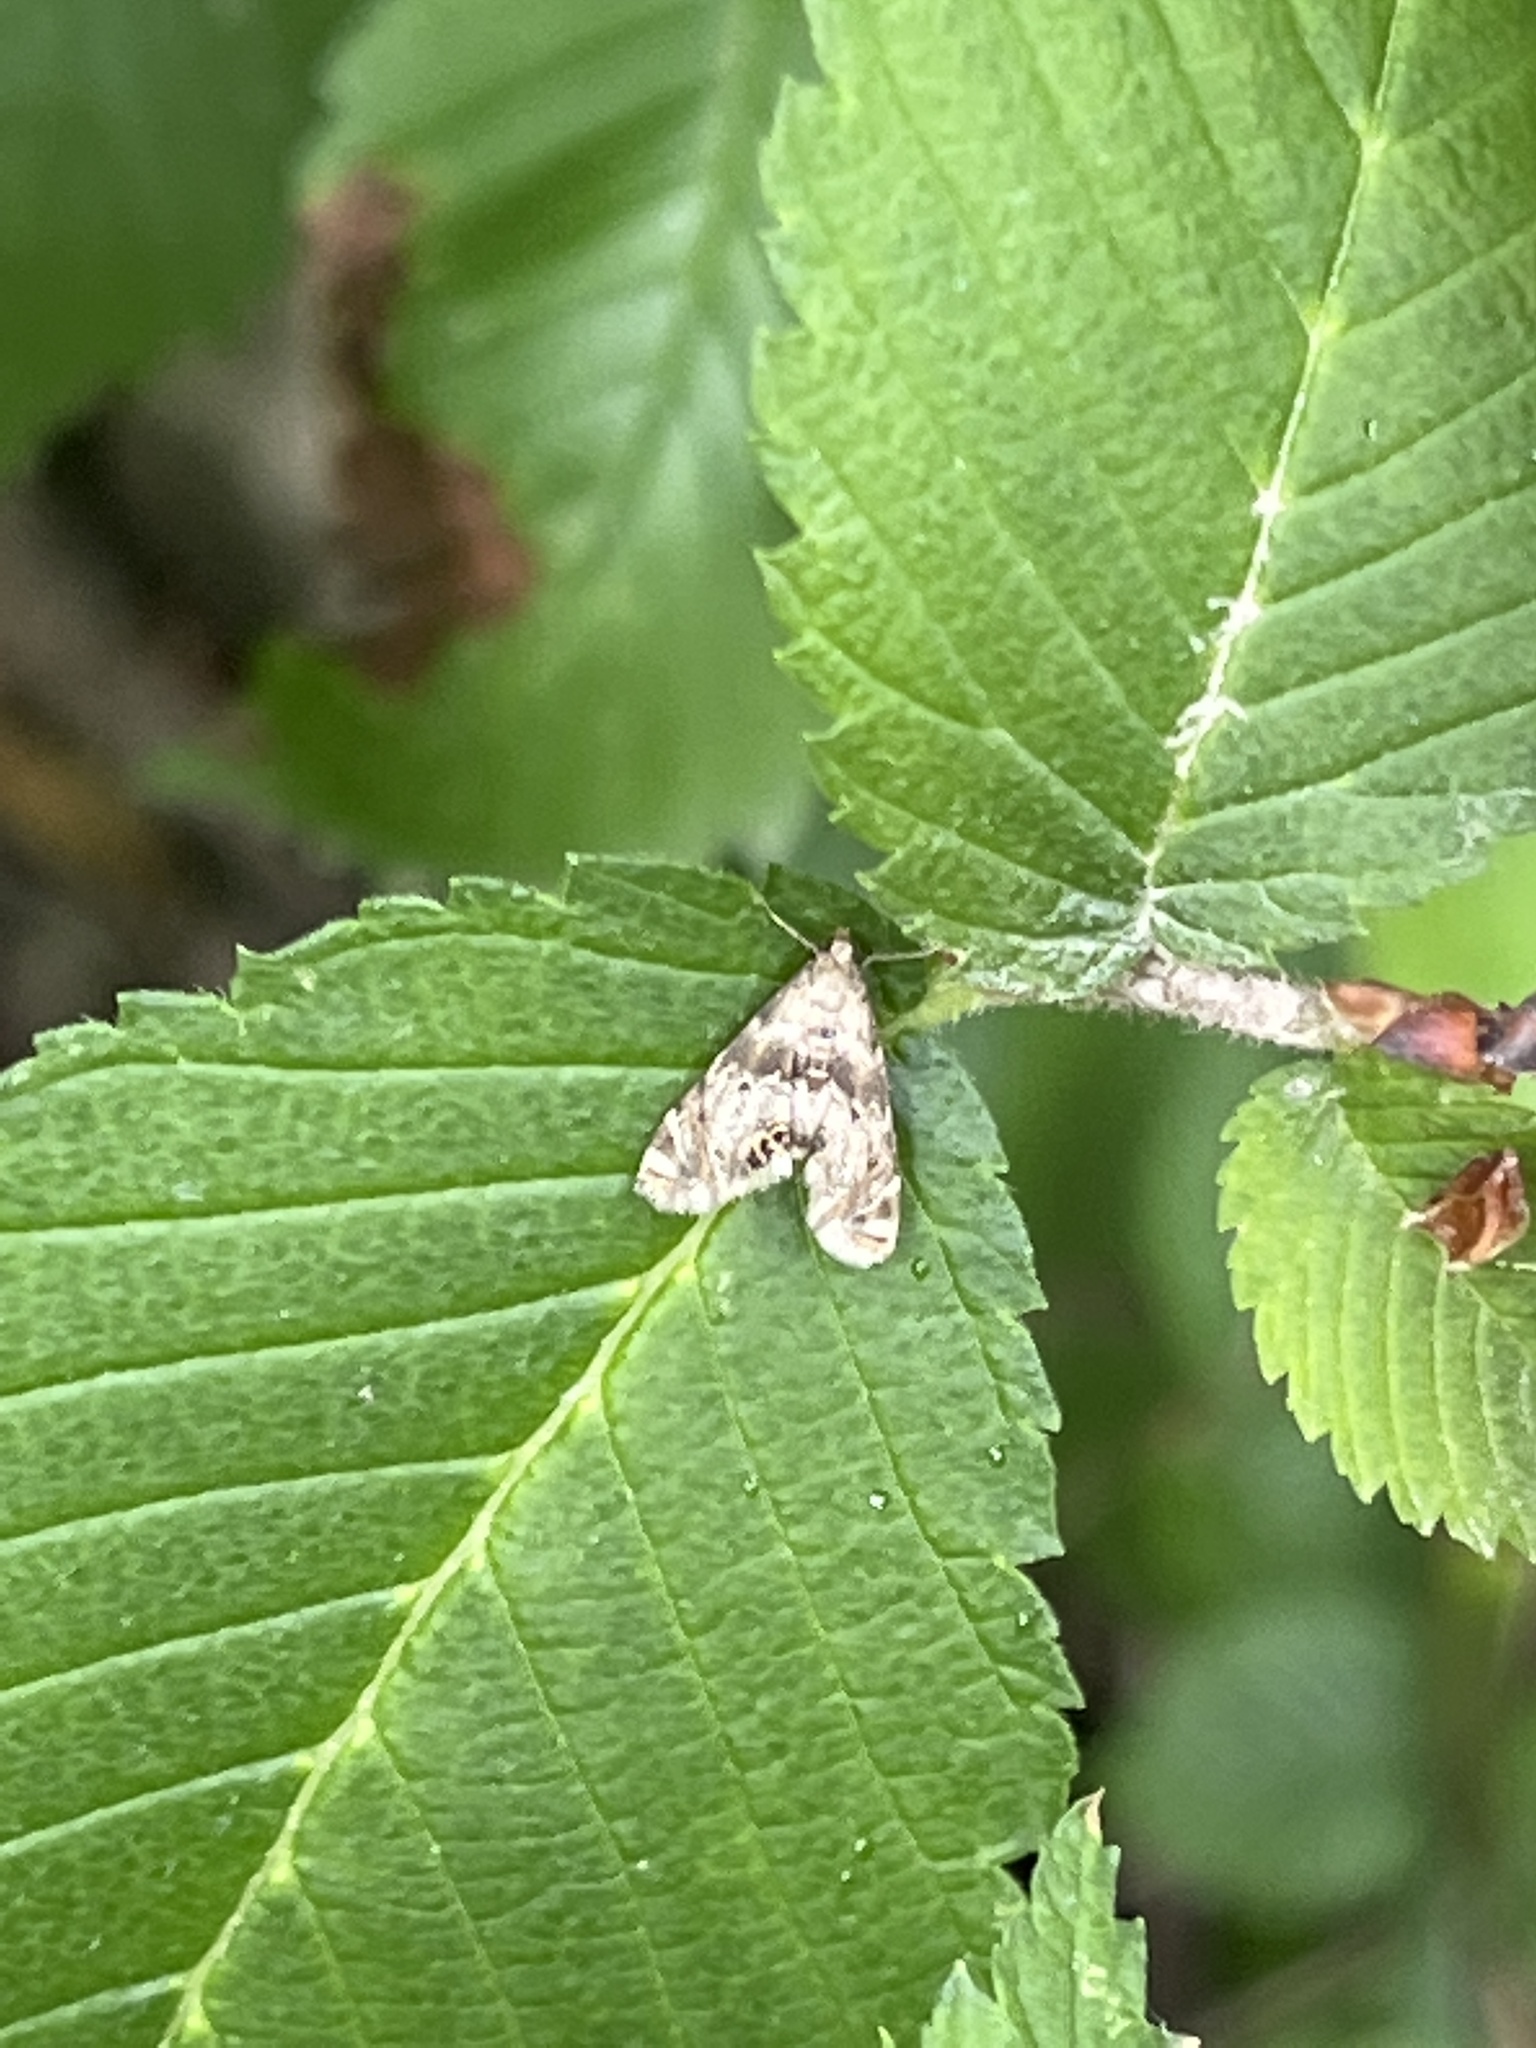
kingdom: Animalia
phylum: Arthropoda
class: Insecta
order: Lepidoptera
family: Crambidae
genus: Petrophila
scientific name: Petrophila fulicalis
